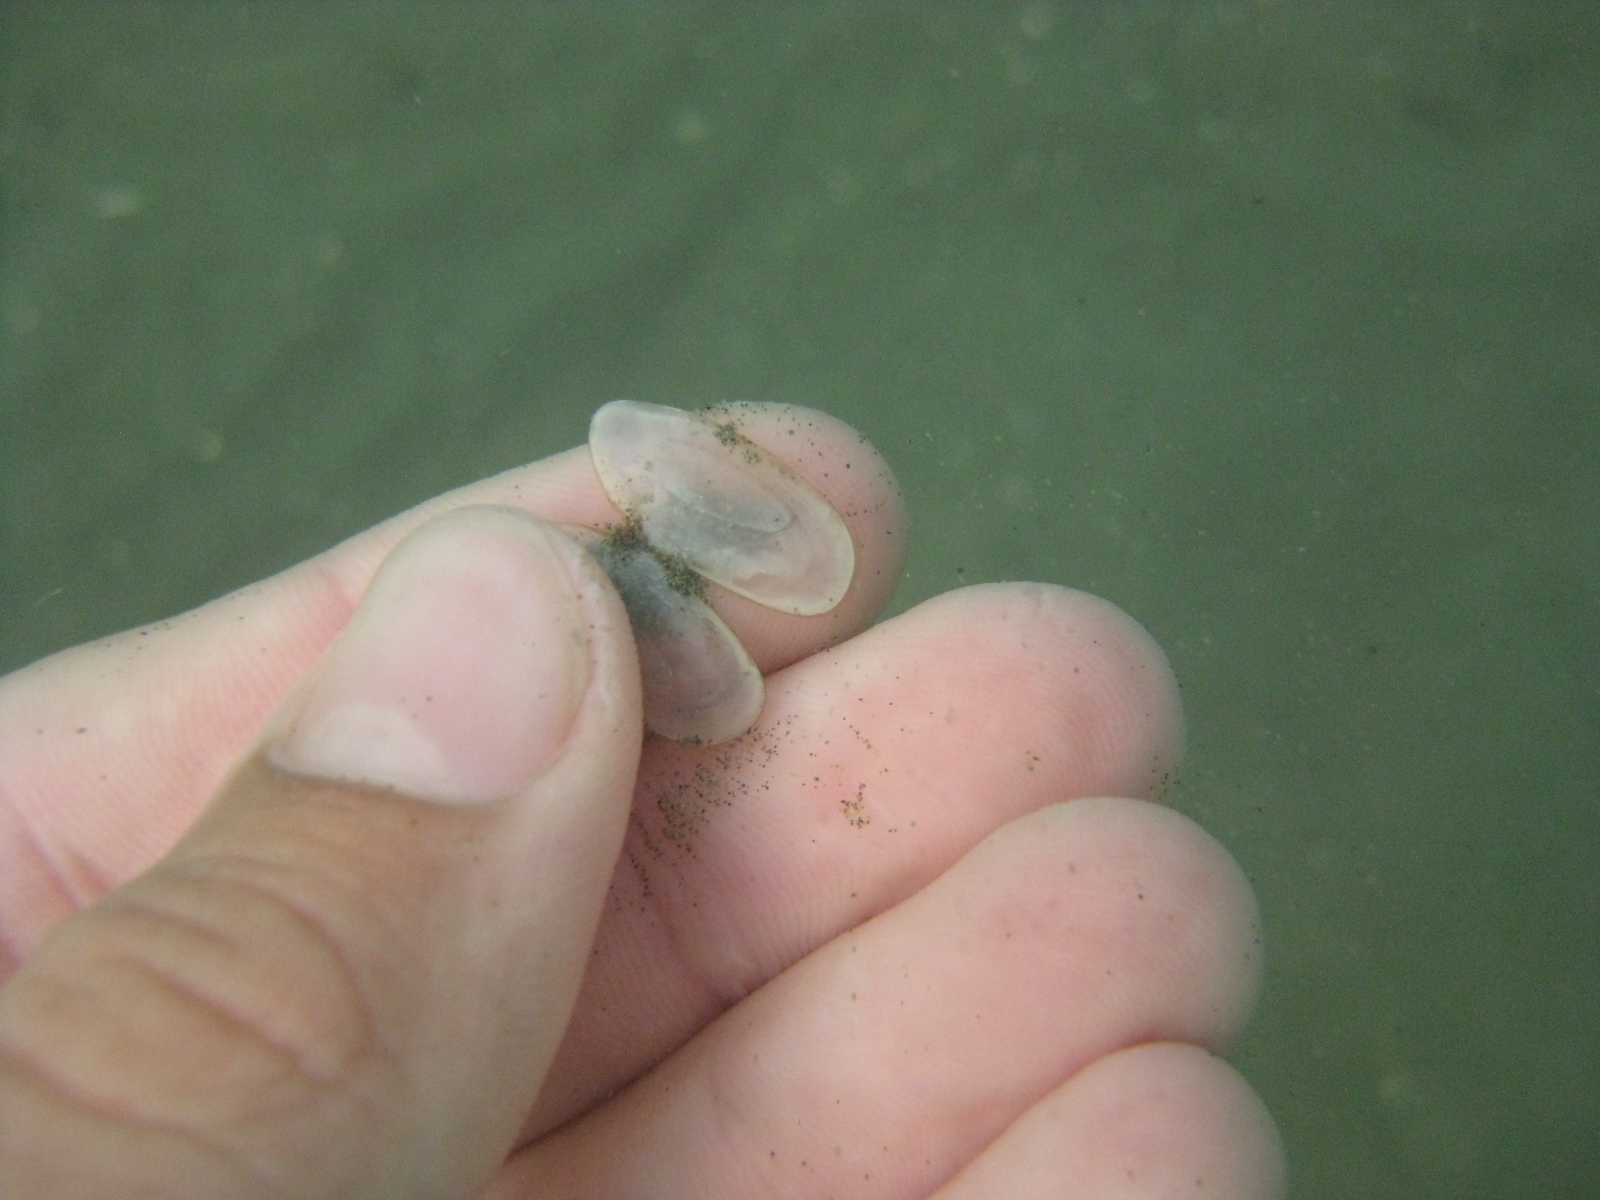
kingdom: Animalia
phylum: Mollusca
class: Bivalvia
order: Cardiida
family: Psammobiidae
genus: Hiatula
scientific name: Hiatula nitida
